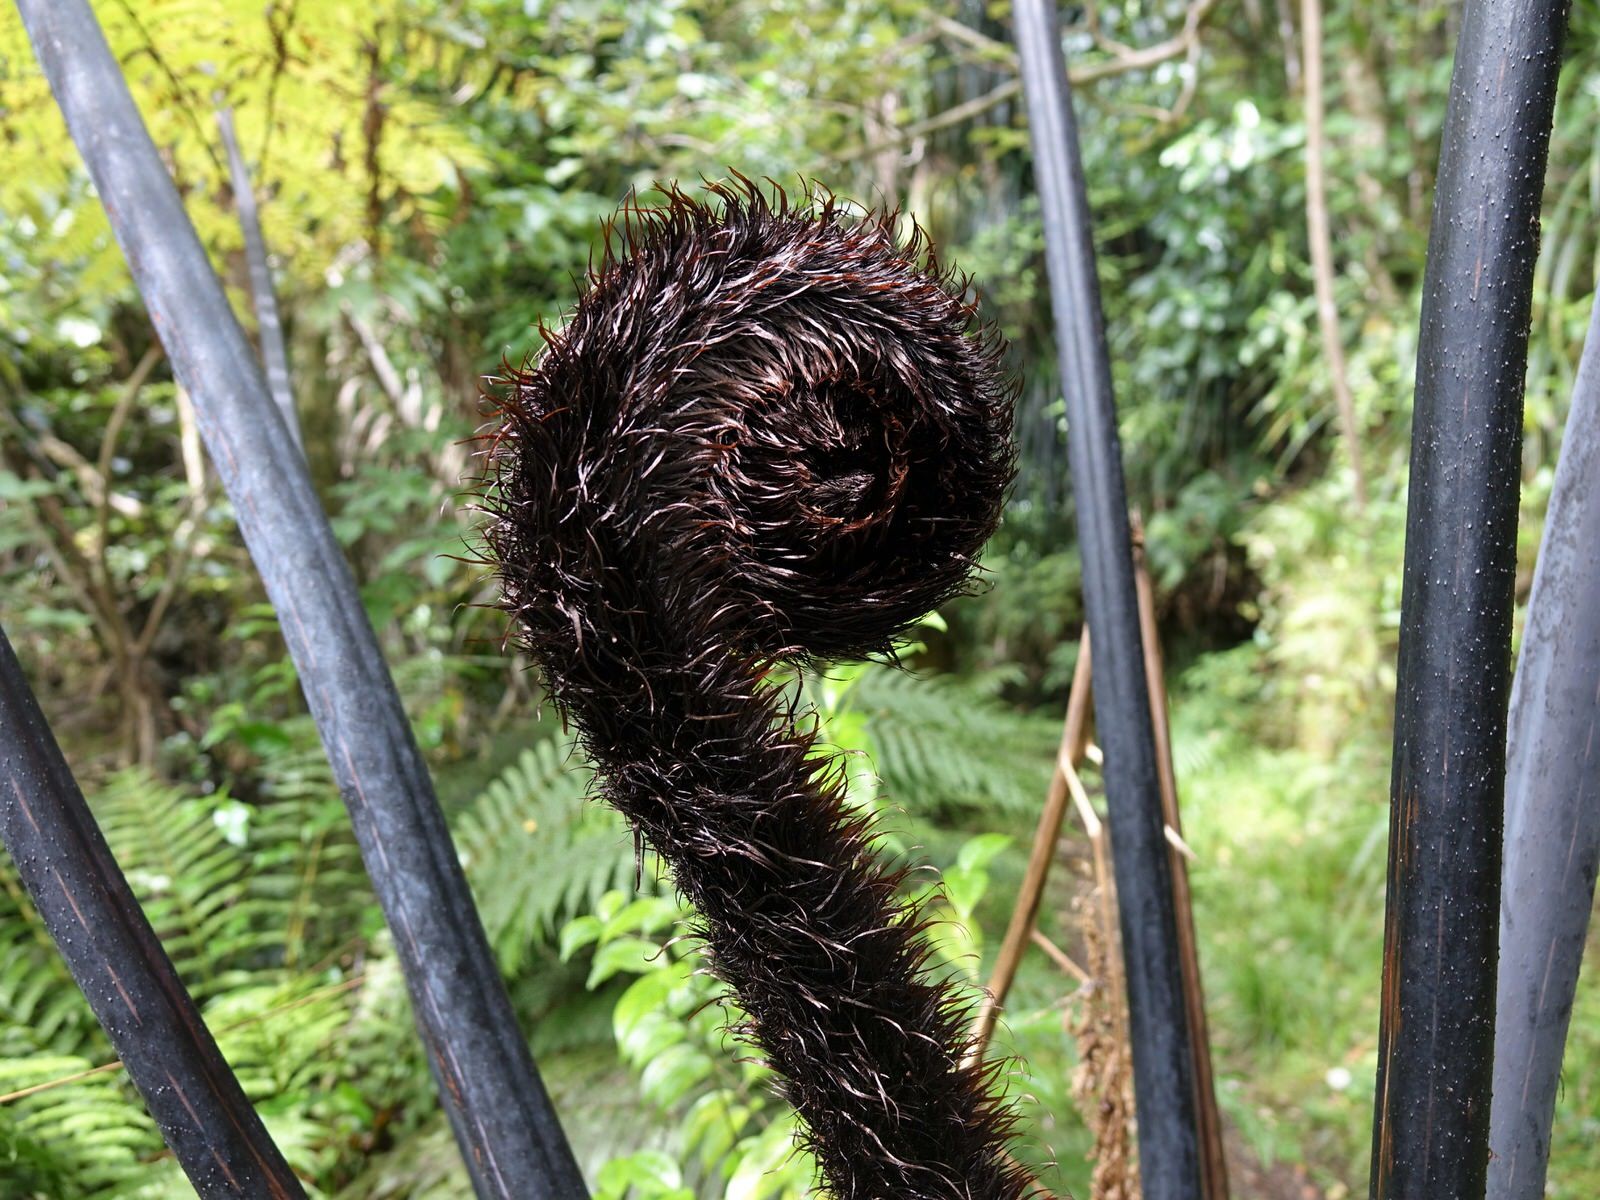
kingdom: Plantae
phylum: Tracheophyta
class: Polypodiopsida
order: Cyatheales
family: Cyatheaceae
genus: Sphaeropteris
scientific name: Sphaeropteris medullaris
